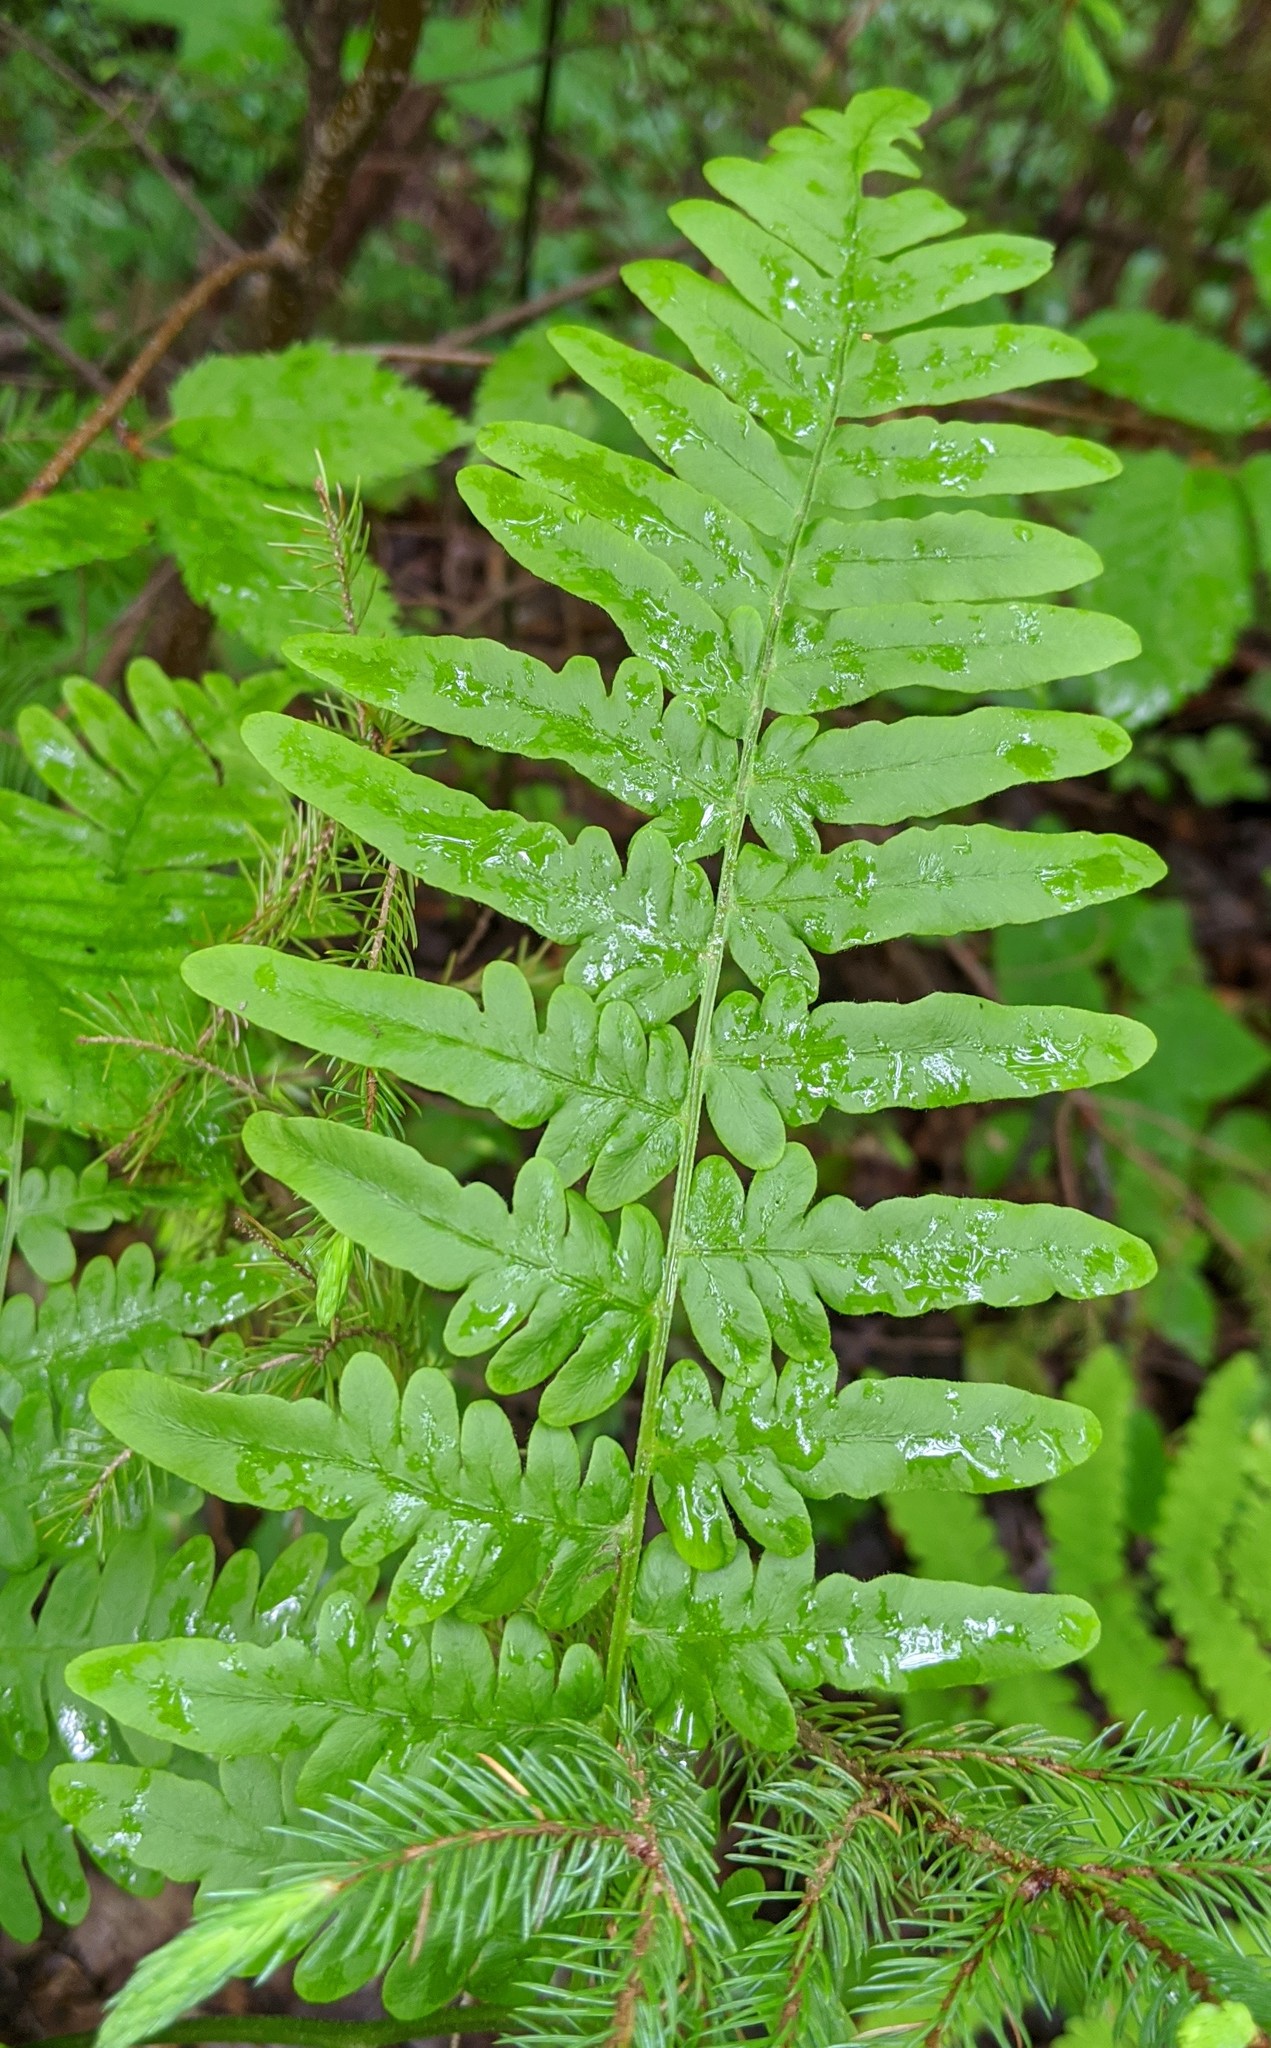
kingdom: Plantae
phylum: Tracheophyta
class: Polypodiopsida
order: Polypodiales
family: Dennstaedtiaceae
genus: Pteridium
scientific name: Pteridium aquilinum
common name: Bracken
